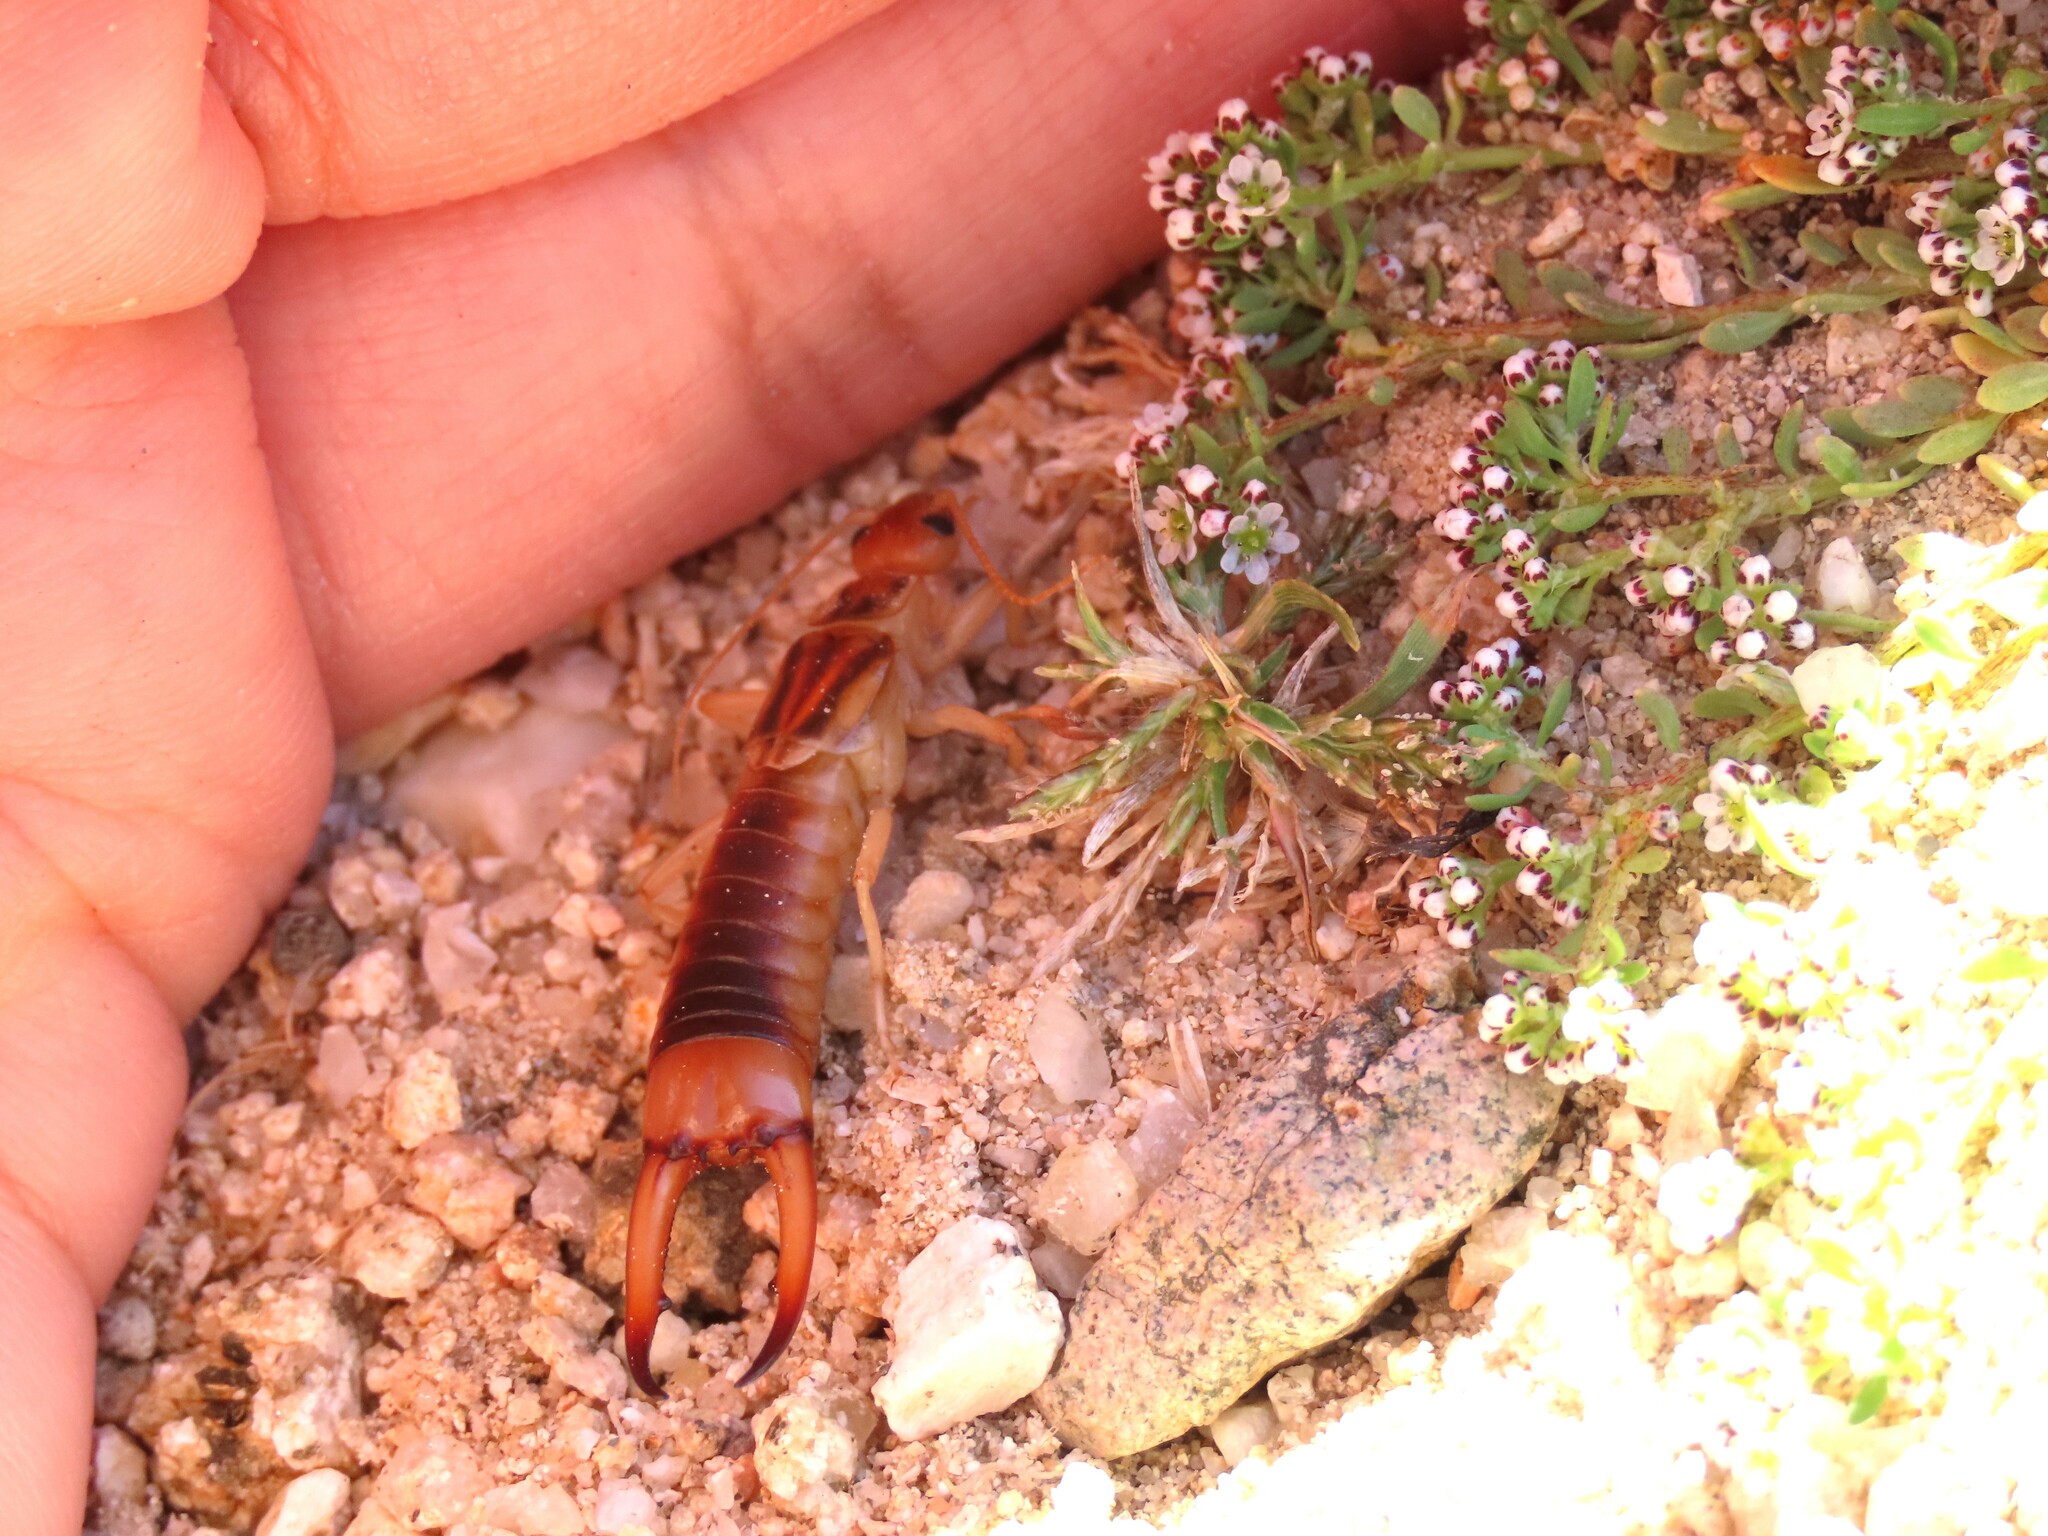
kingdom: Animalia
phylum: Arthropoda
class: Insecta
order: Dermaptera
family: Labiduridae
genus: Labidura
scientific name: Labidura riparia
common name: Striped earwig
